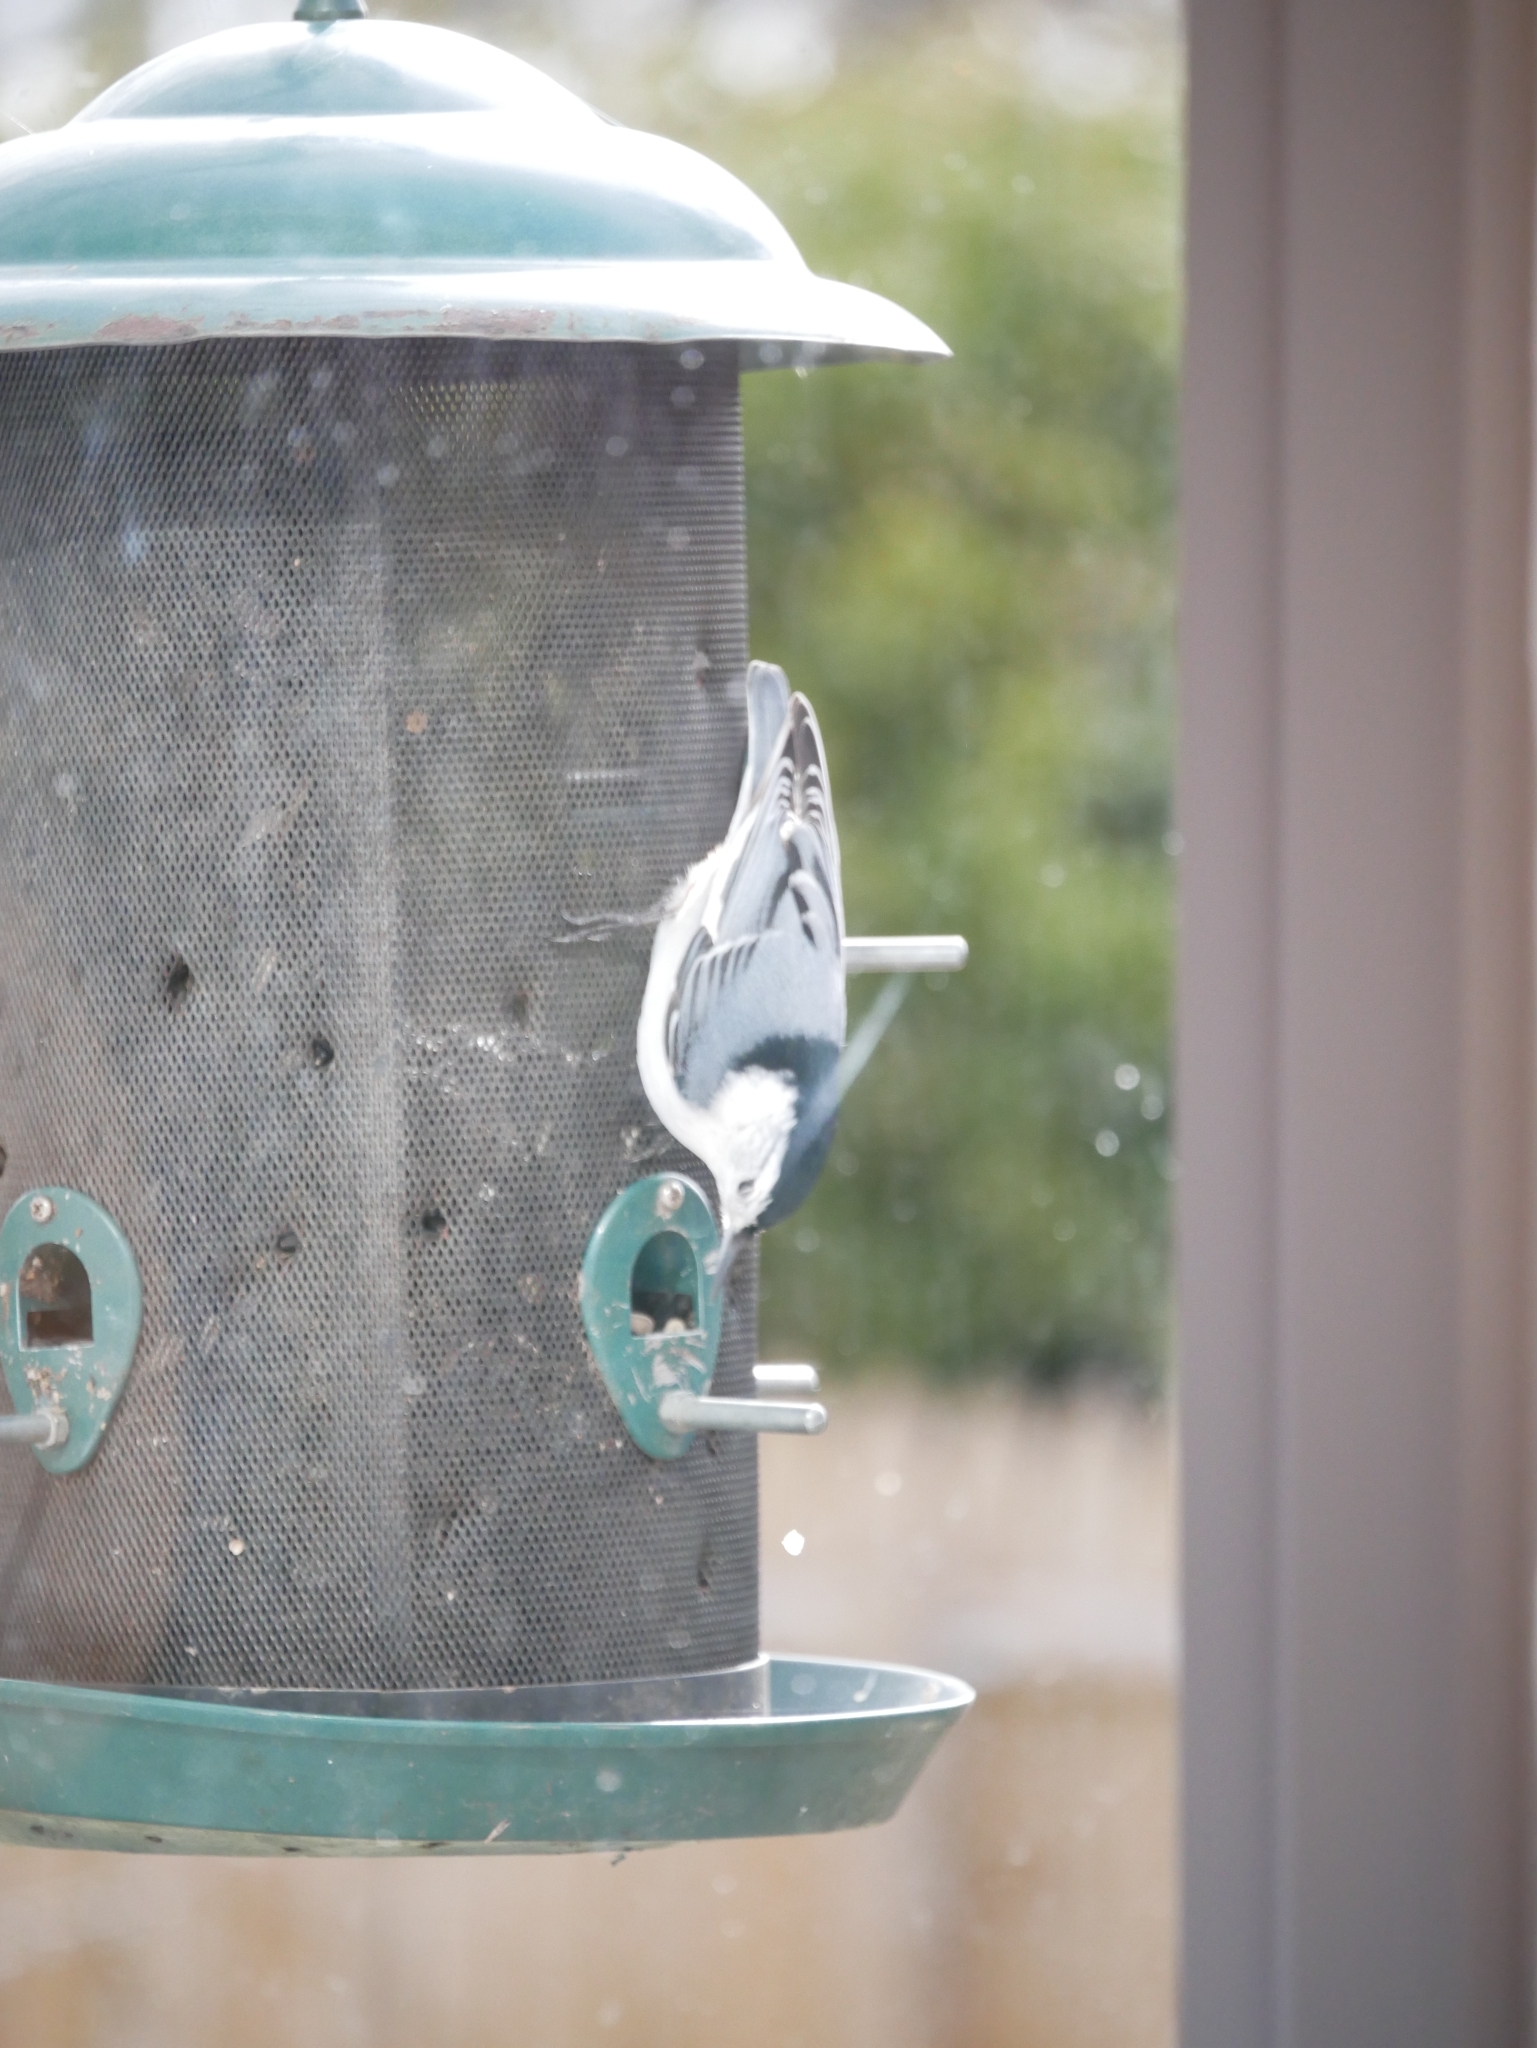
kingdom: Animalia
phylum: Chordata
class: Aves
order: Passeriformes
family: Sittidae
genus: Sitta
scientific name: Sitta carolinensis
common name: White-breasted nuthatch
